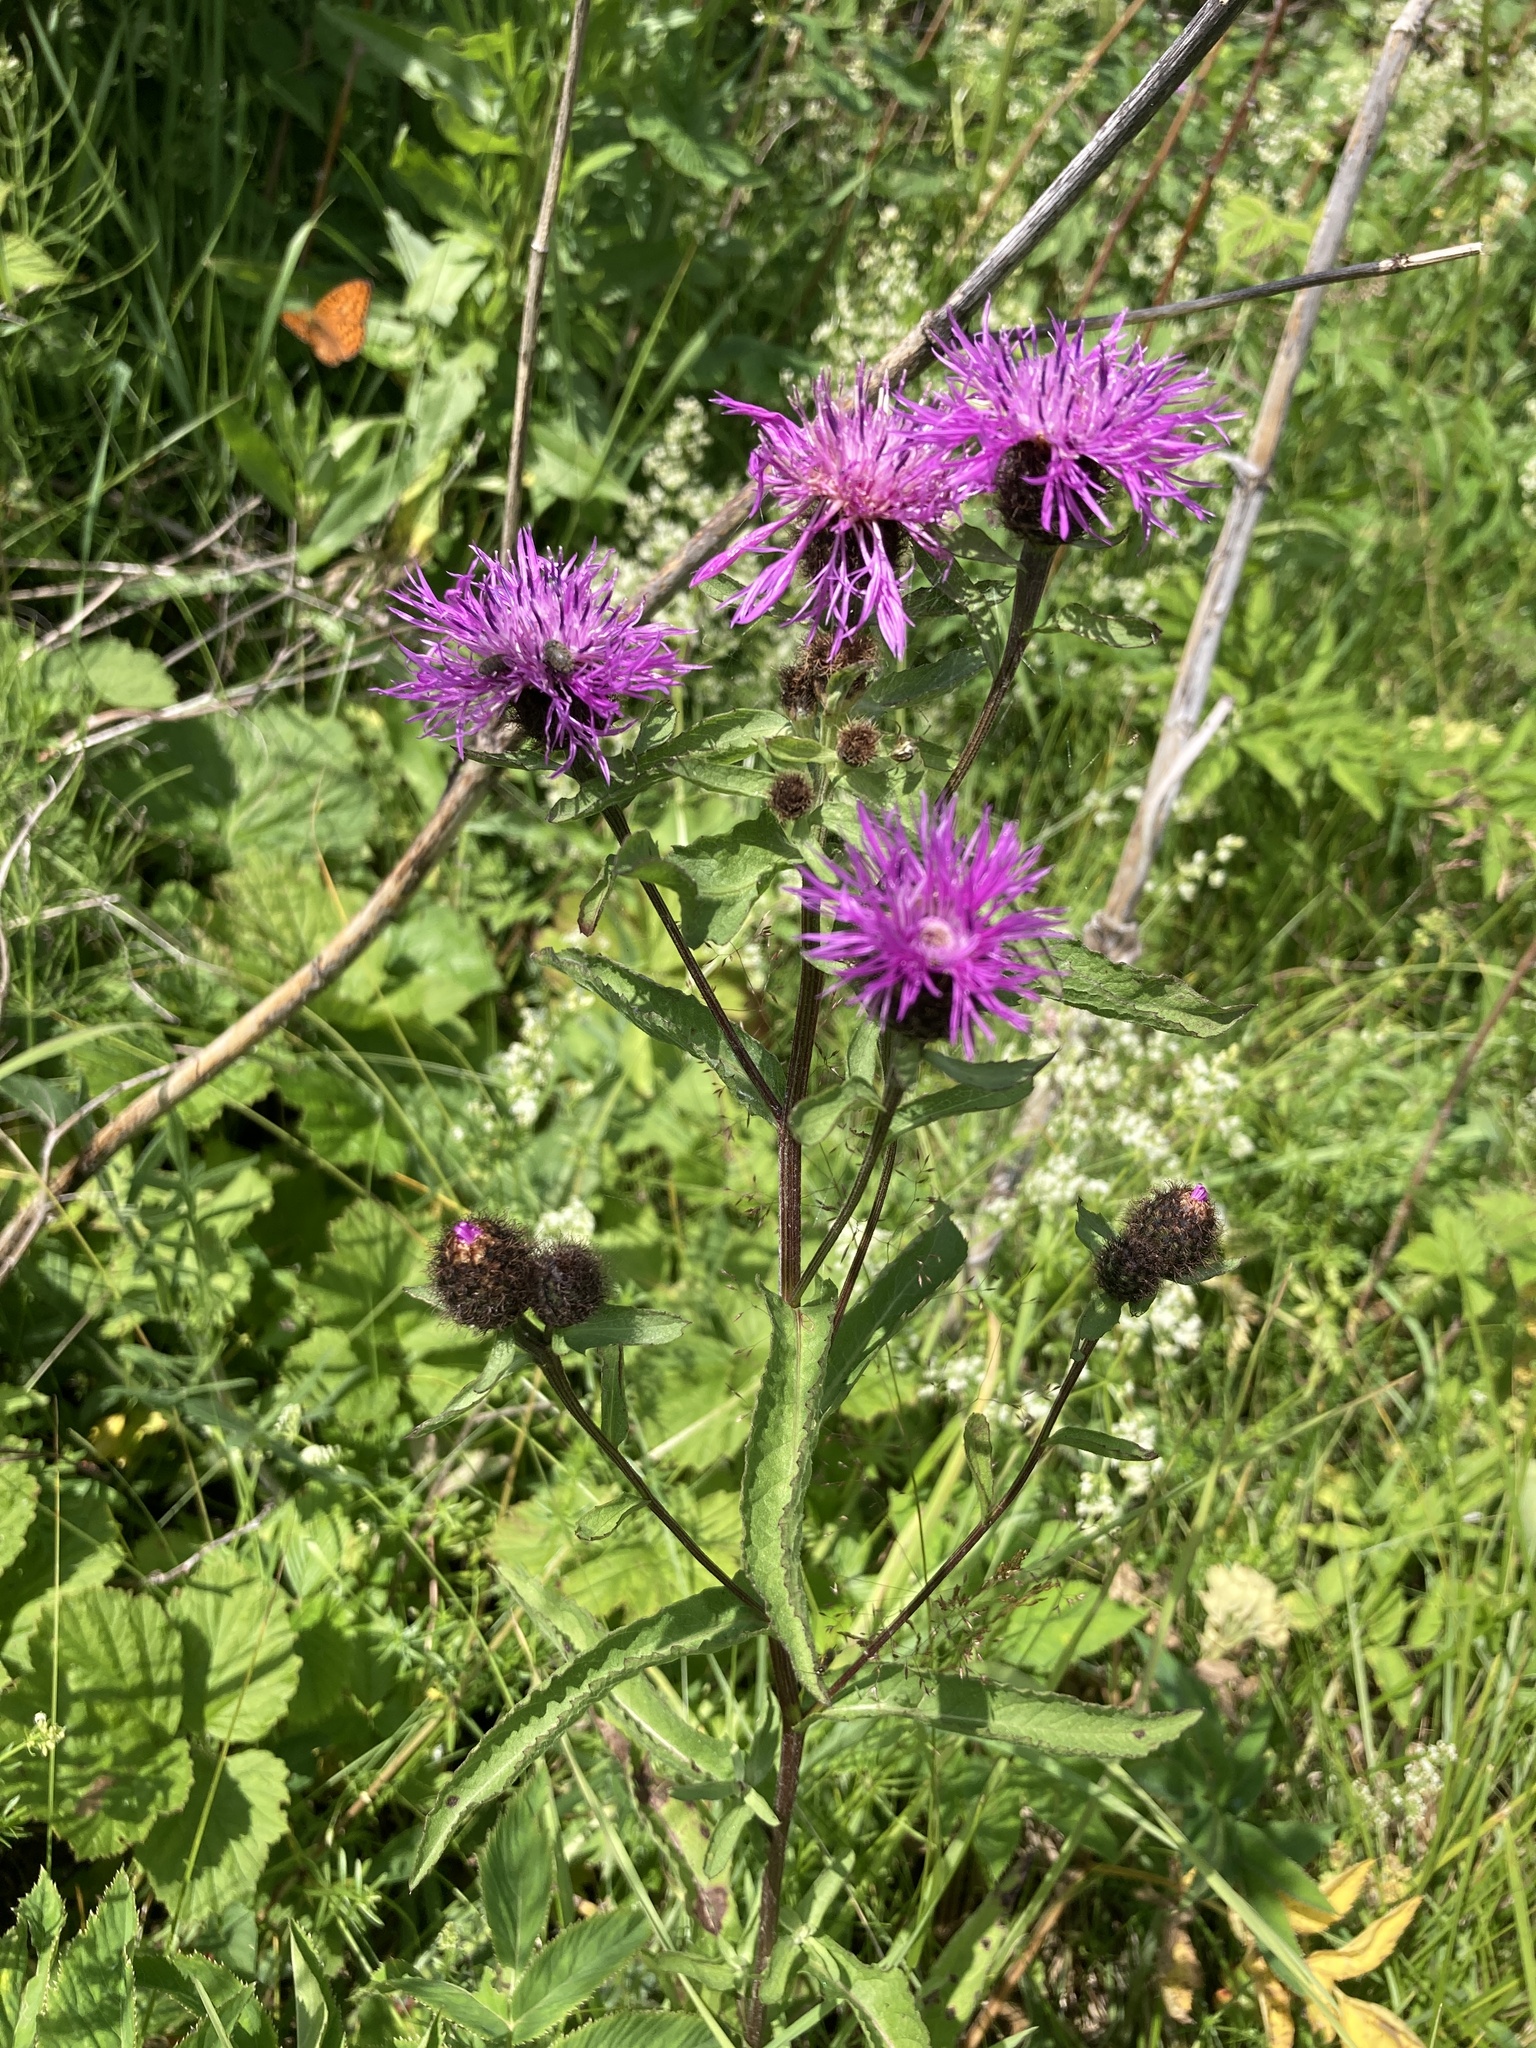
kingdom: Plantae
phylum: Tracheophyta
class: Magnoliopsida
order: Asterales
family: Asteraceae
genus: Centaurea
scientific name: Centaurea phrygia
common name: Wig knapweed
